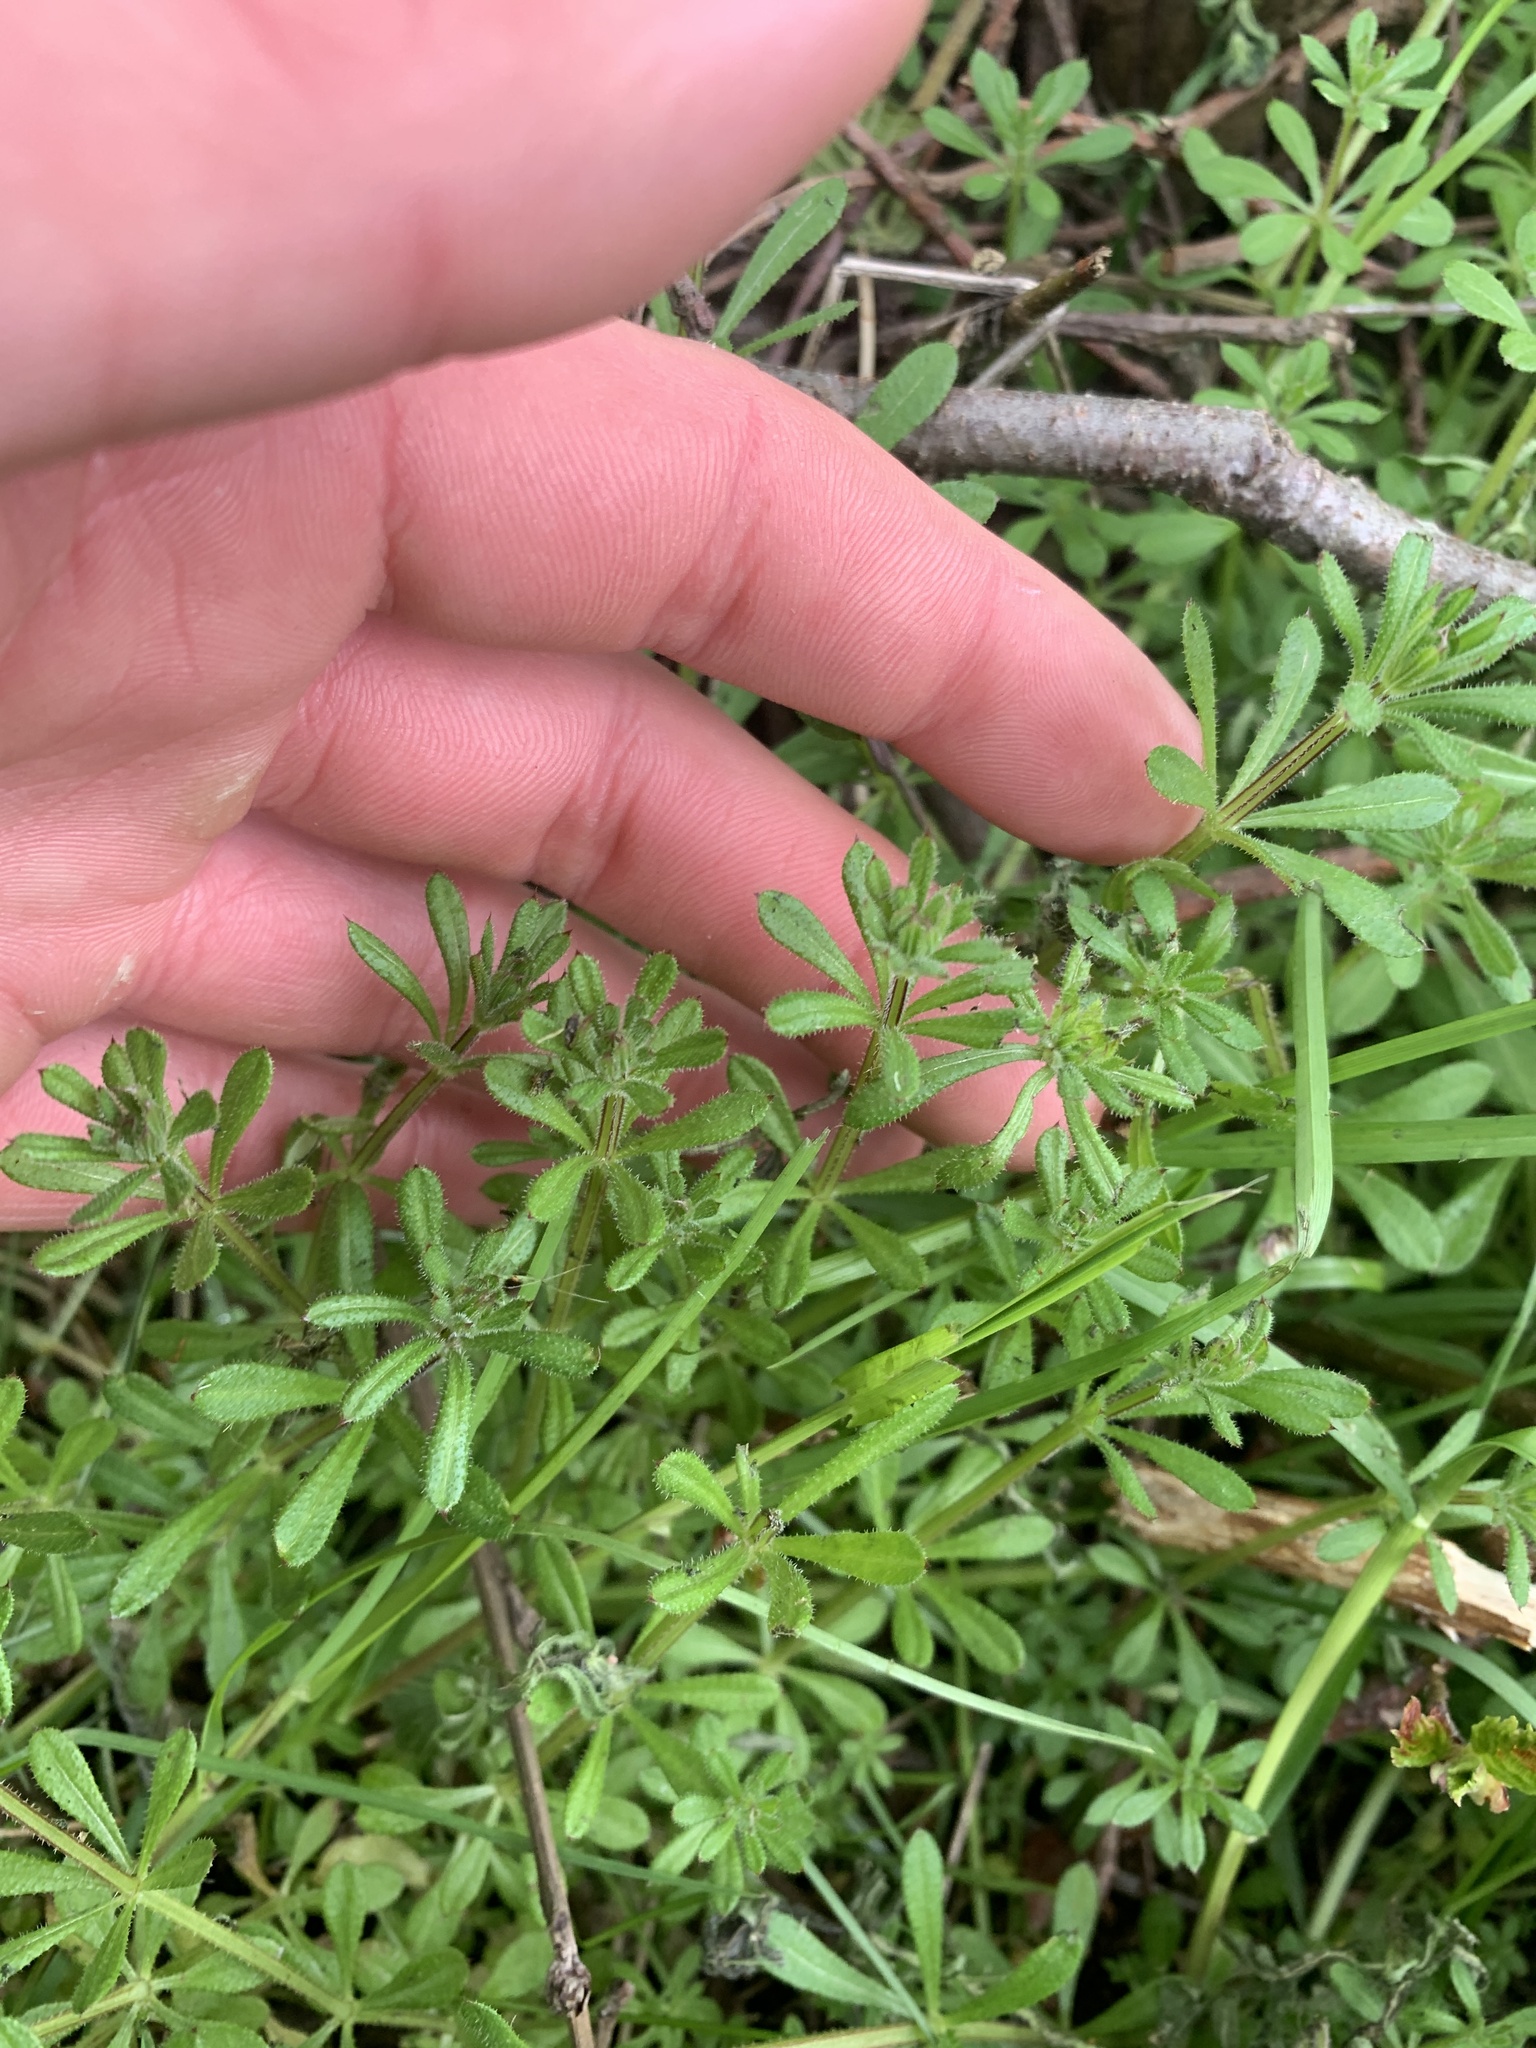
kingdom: Plantae
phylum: Tracheophyta
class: Magnoliopsida
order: Gentianales
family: Rubiaceae
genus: Galium
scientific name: Galium aparine
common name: Cleavers
